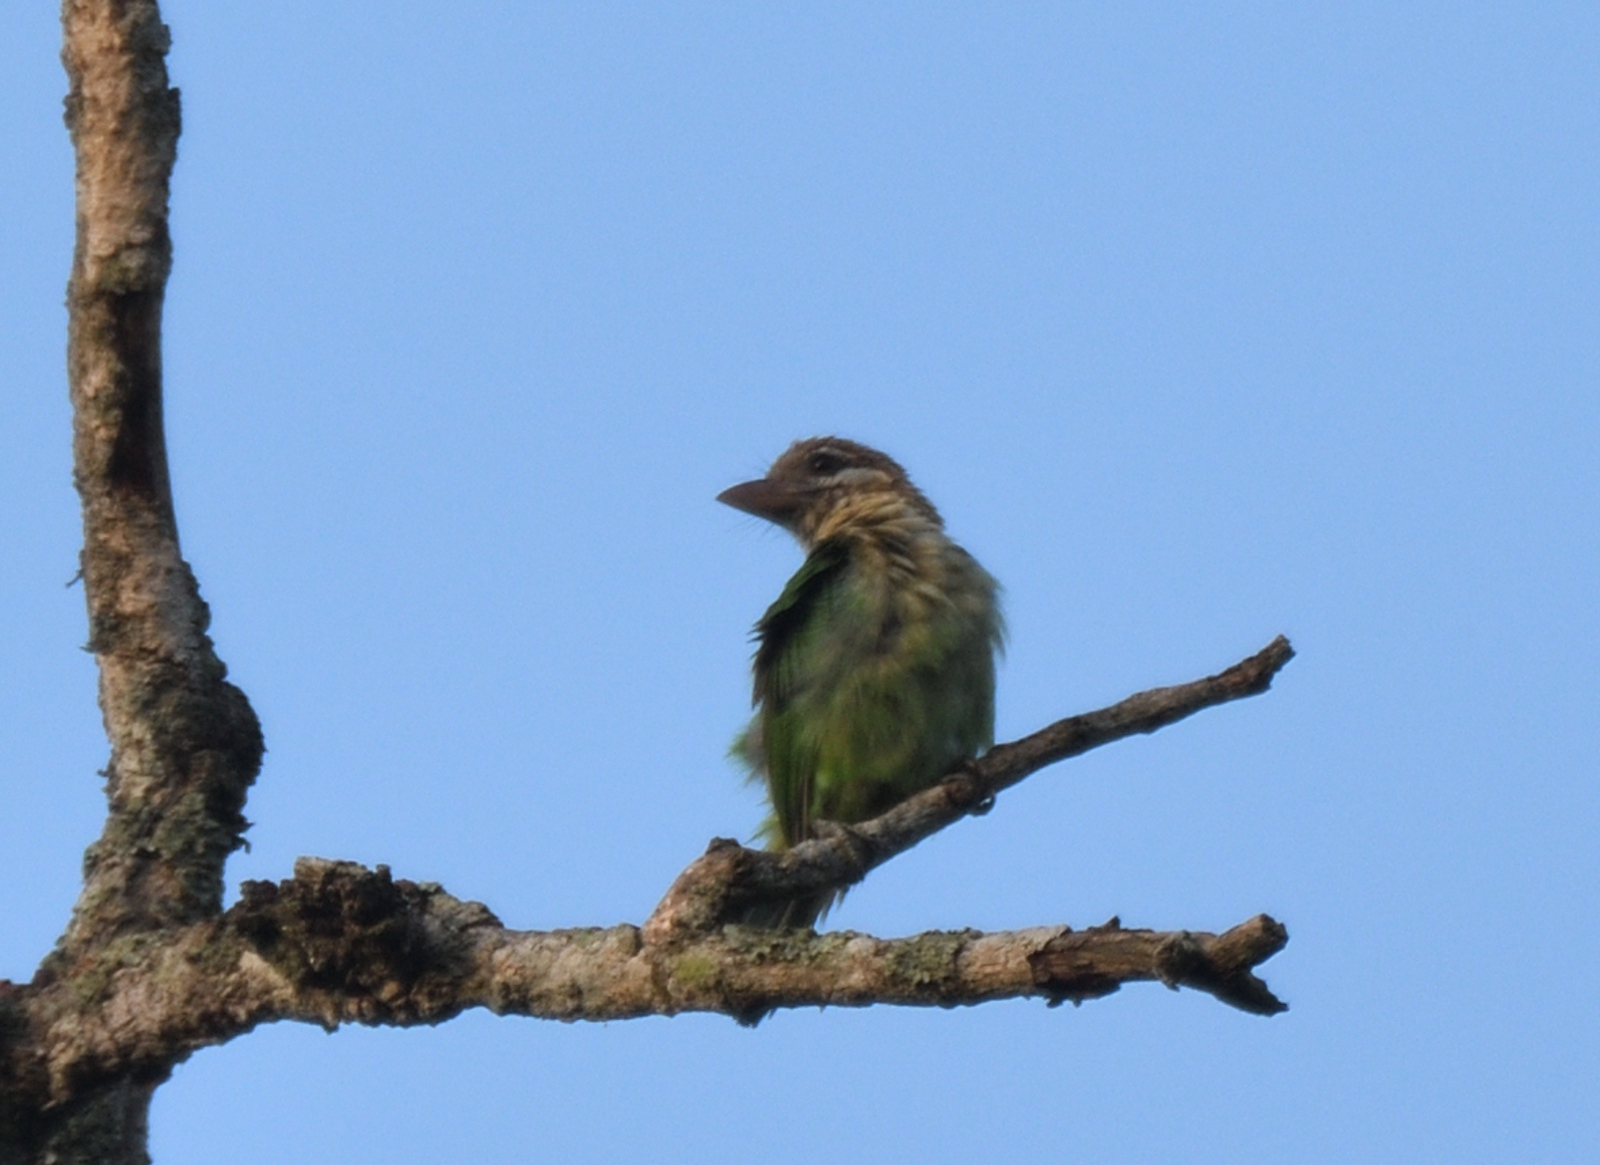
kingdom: Animalia
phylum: Chordata
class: Aves
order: Piciformes
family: Megalaimidae
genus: Psilopogon
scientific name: Psilopogon viridis
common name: White-cheeked barbet
